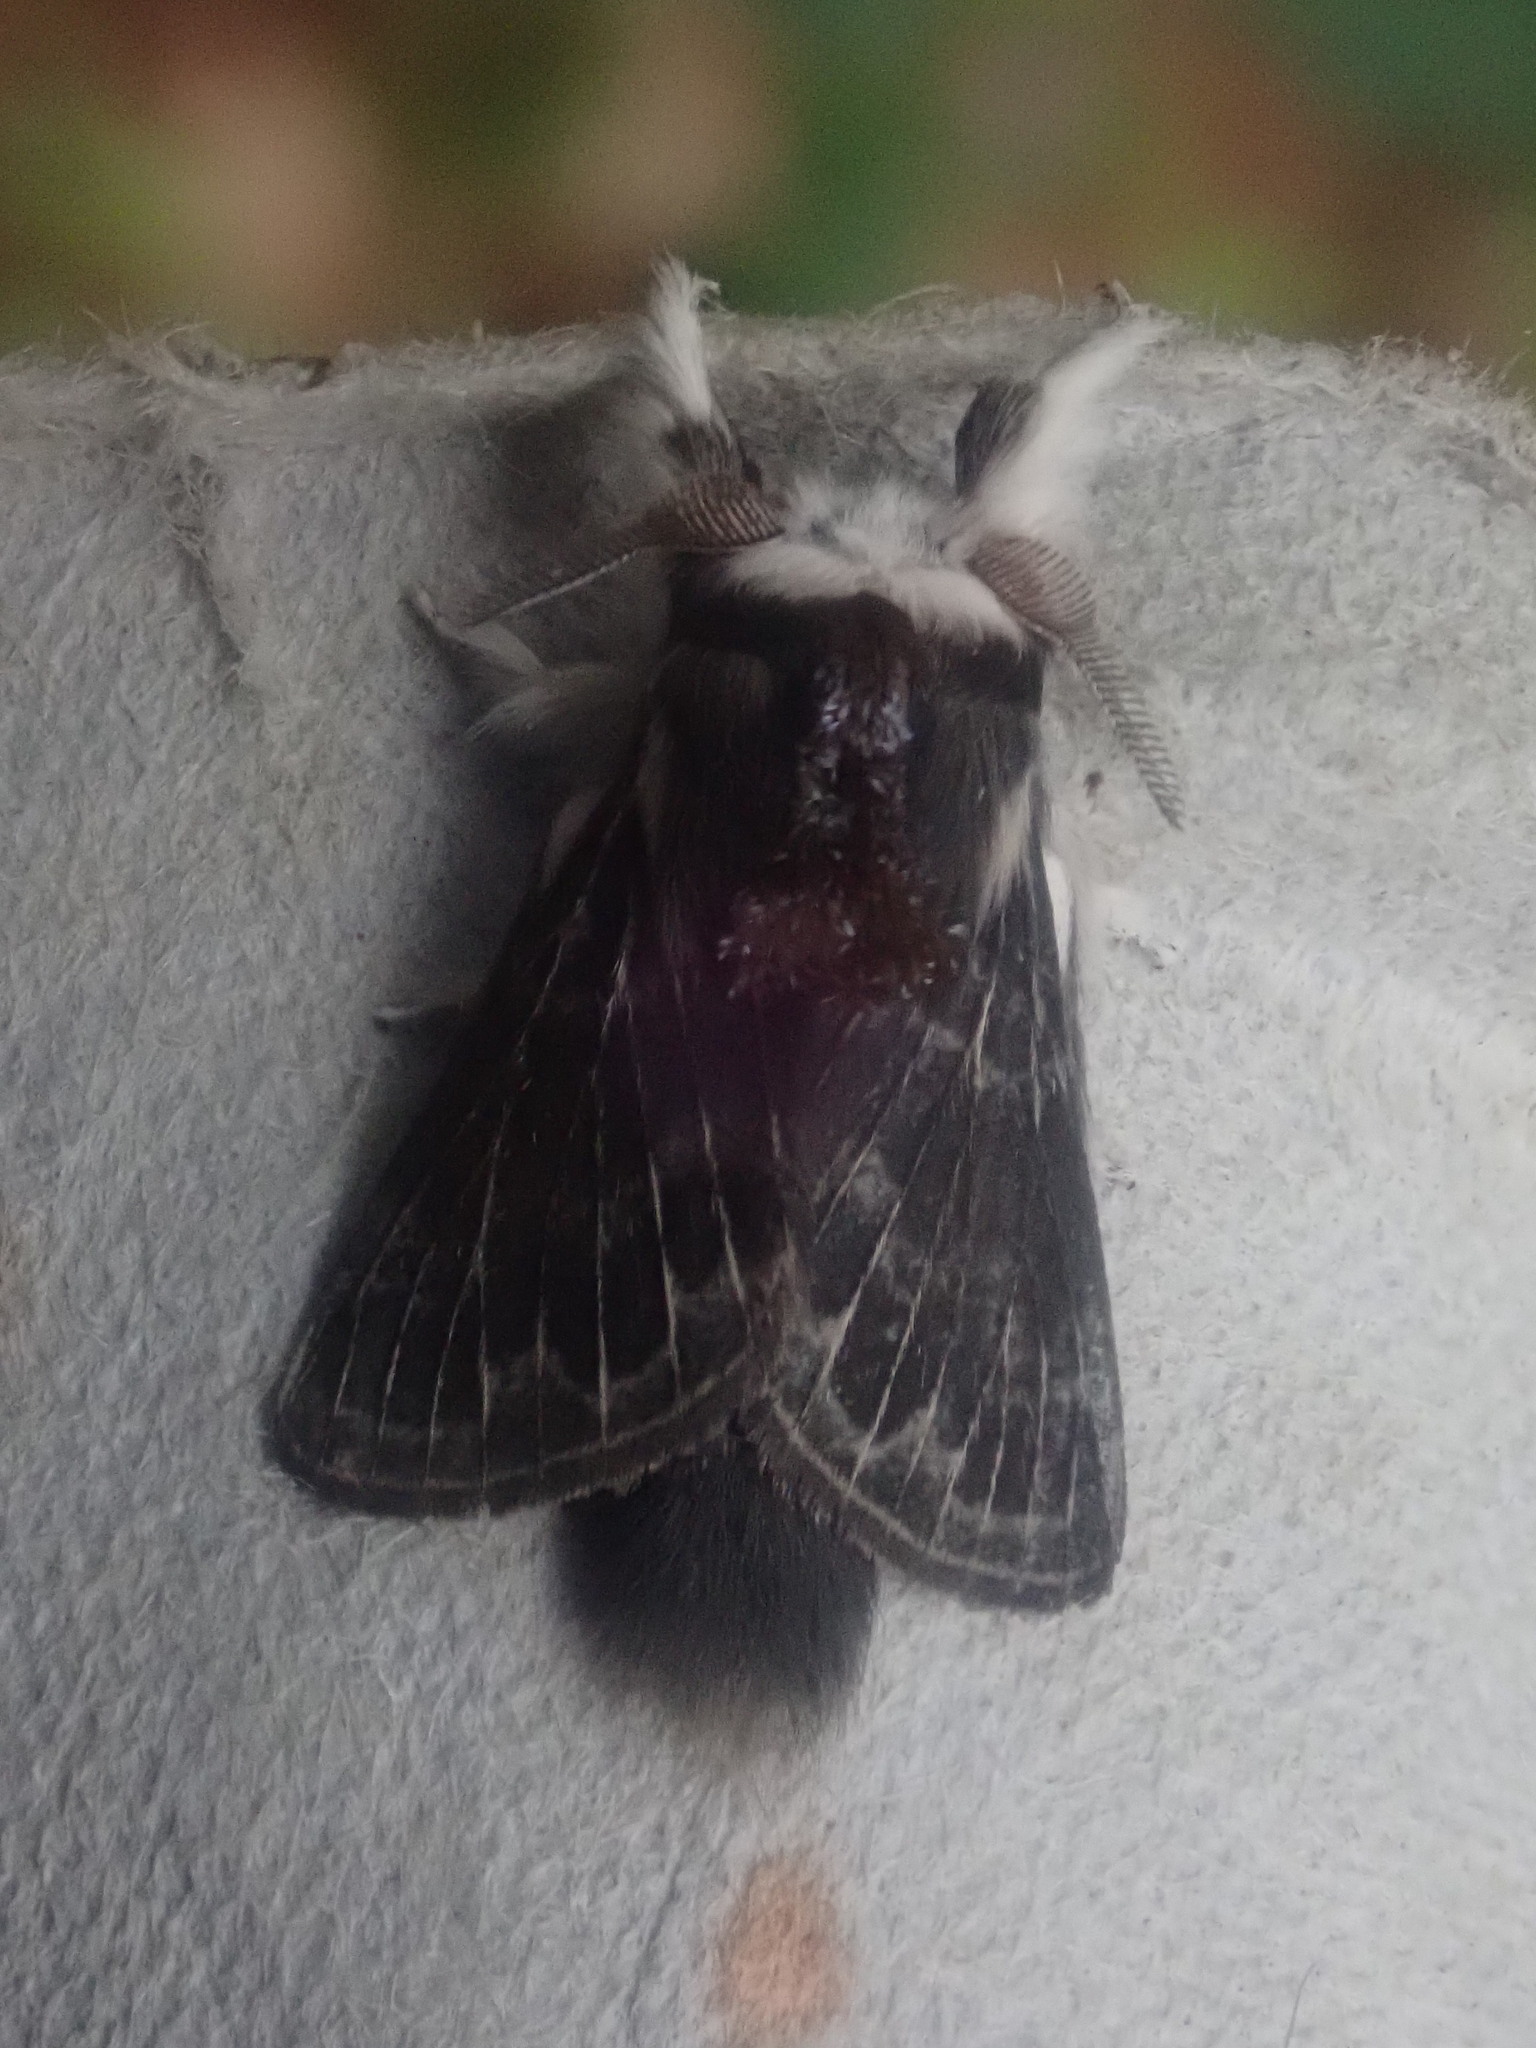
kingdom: Animalia
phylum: Arthropoda
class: Insecta
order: Lepidoptera
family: Lasiocampidae
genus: Tolype
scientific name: Tolype laricis
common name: Larch tolype moth
